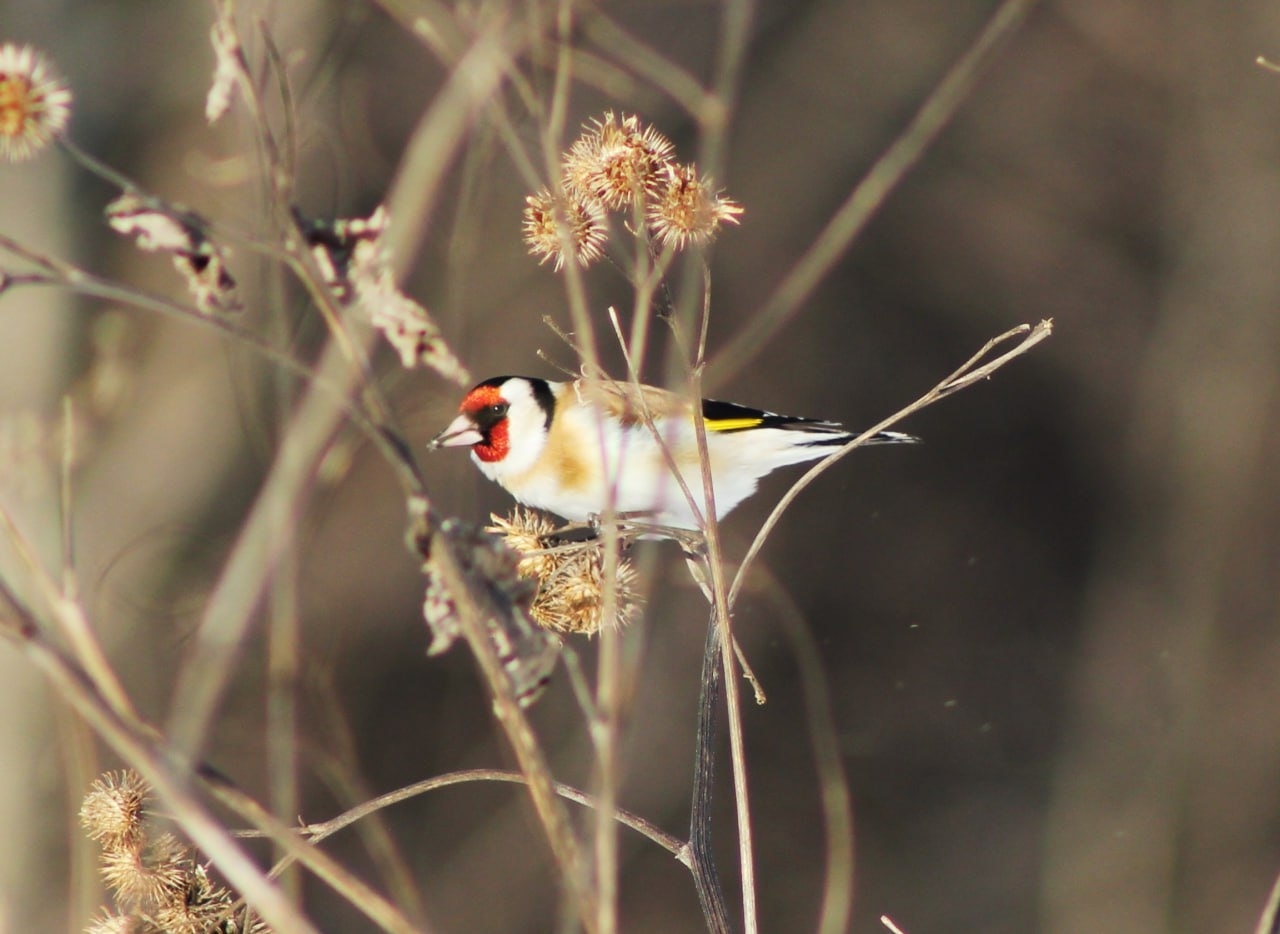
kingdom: Animalia
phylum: Chordata
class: Aves
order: Passeriformes
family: Fringillidae
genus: Carduelis
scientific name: Carduelis carduelis
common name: European goldfinch
